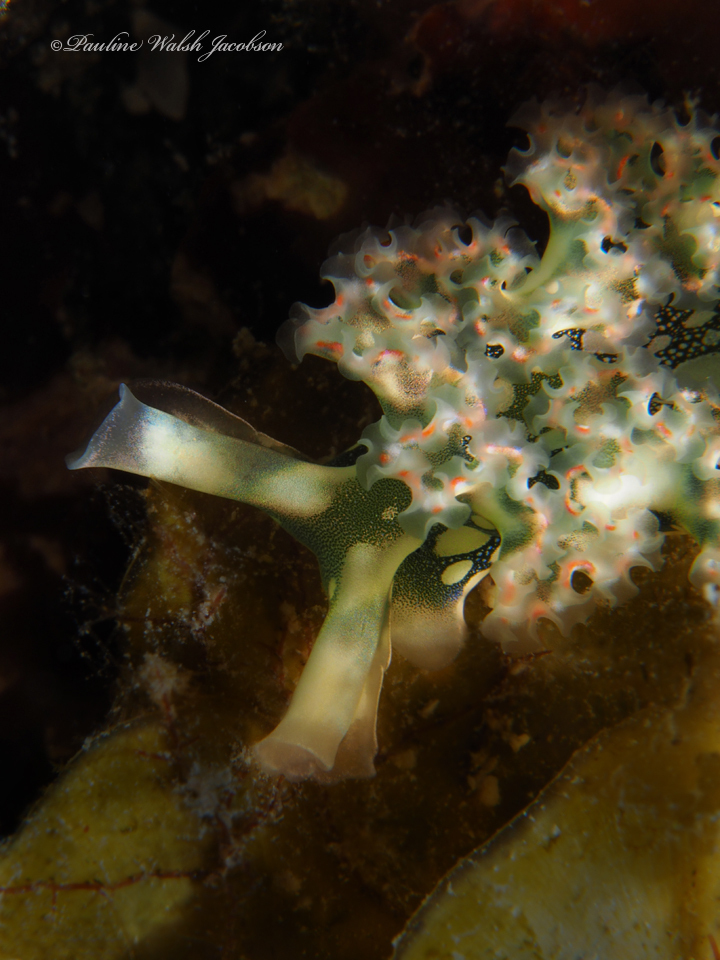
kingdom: Animalia
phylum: Mollusca
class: Gastropoda
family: Plakobranchidae
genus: Elysia
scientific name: Elysia crispata
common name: Lettuce slug
